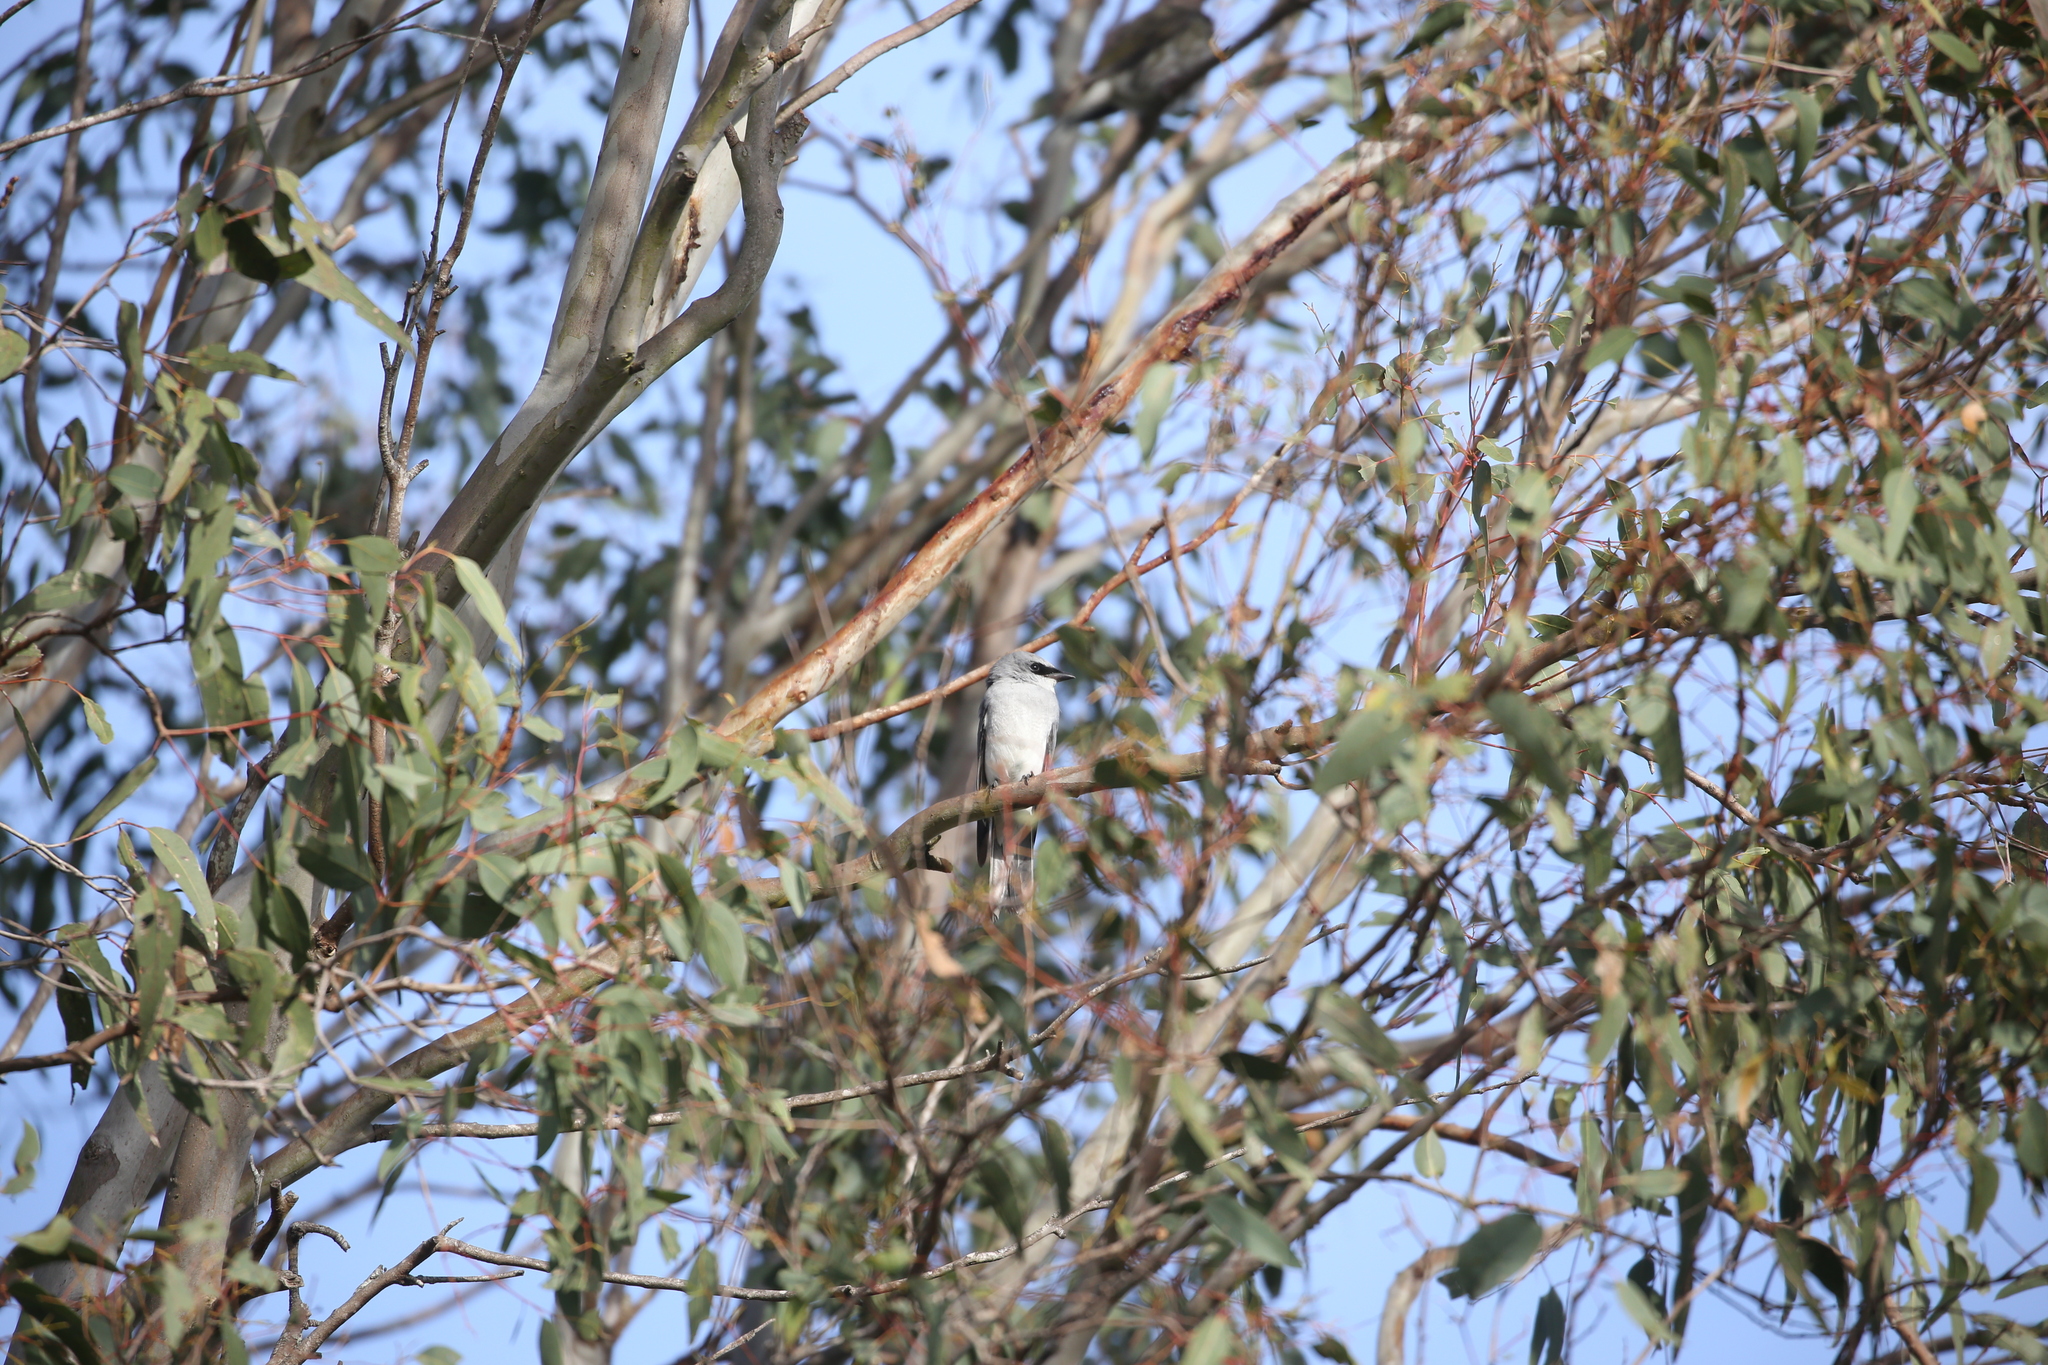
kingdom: Animalia
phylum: Chordata
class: Aves
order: Passeriformes
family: Campephagidae
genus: Coracina
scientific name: Coracina papuensis
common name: White-bellied cuckooshrike
